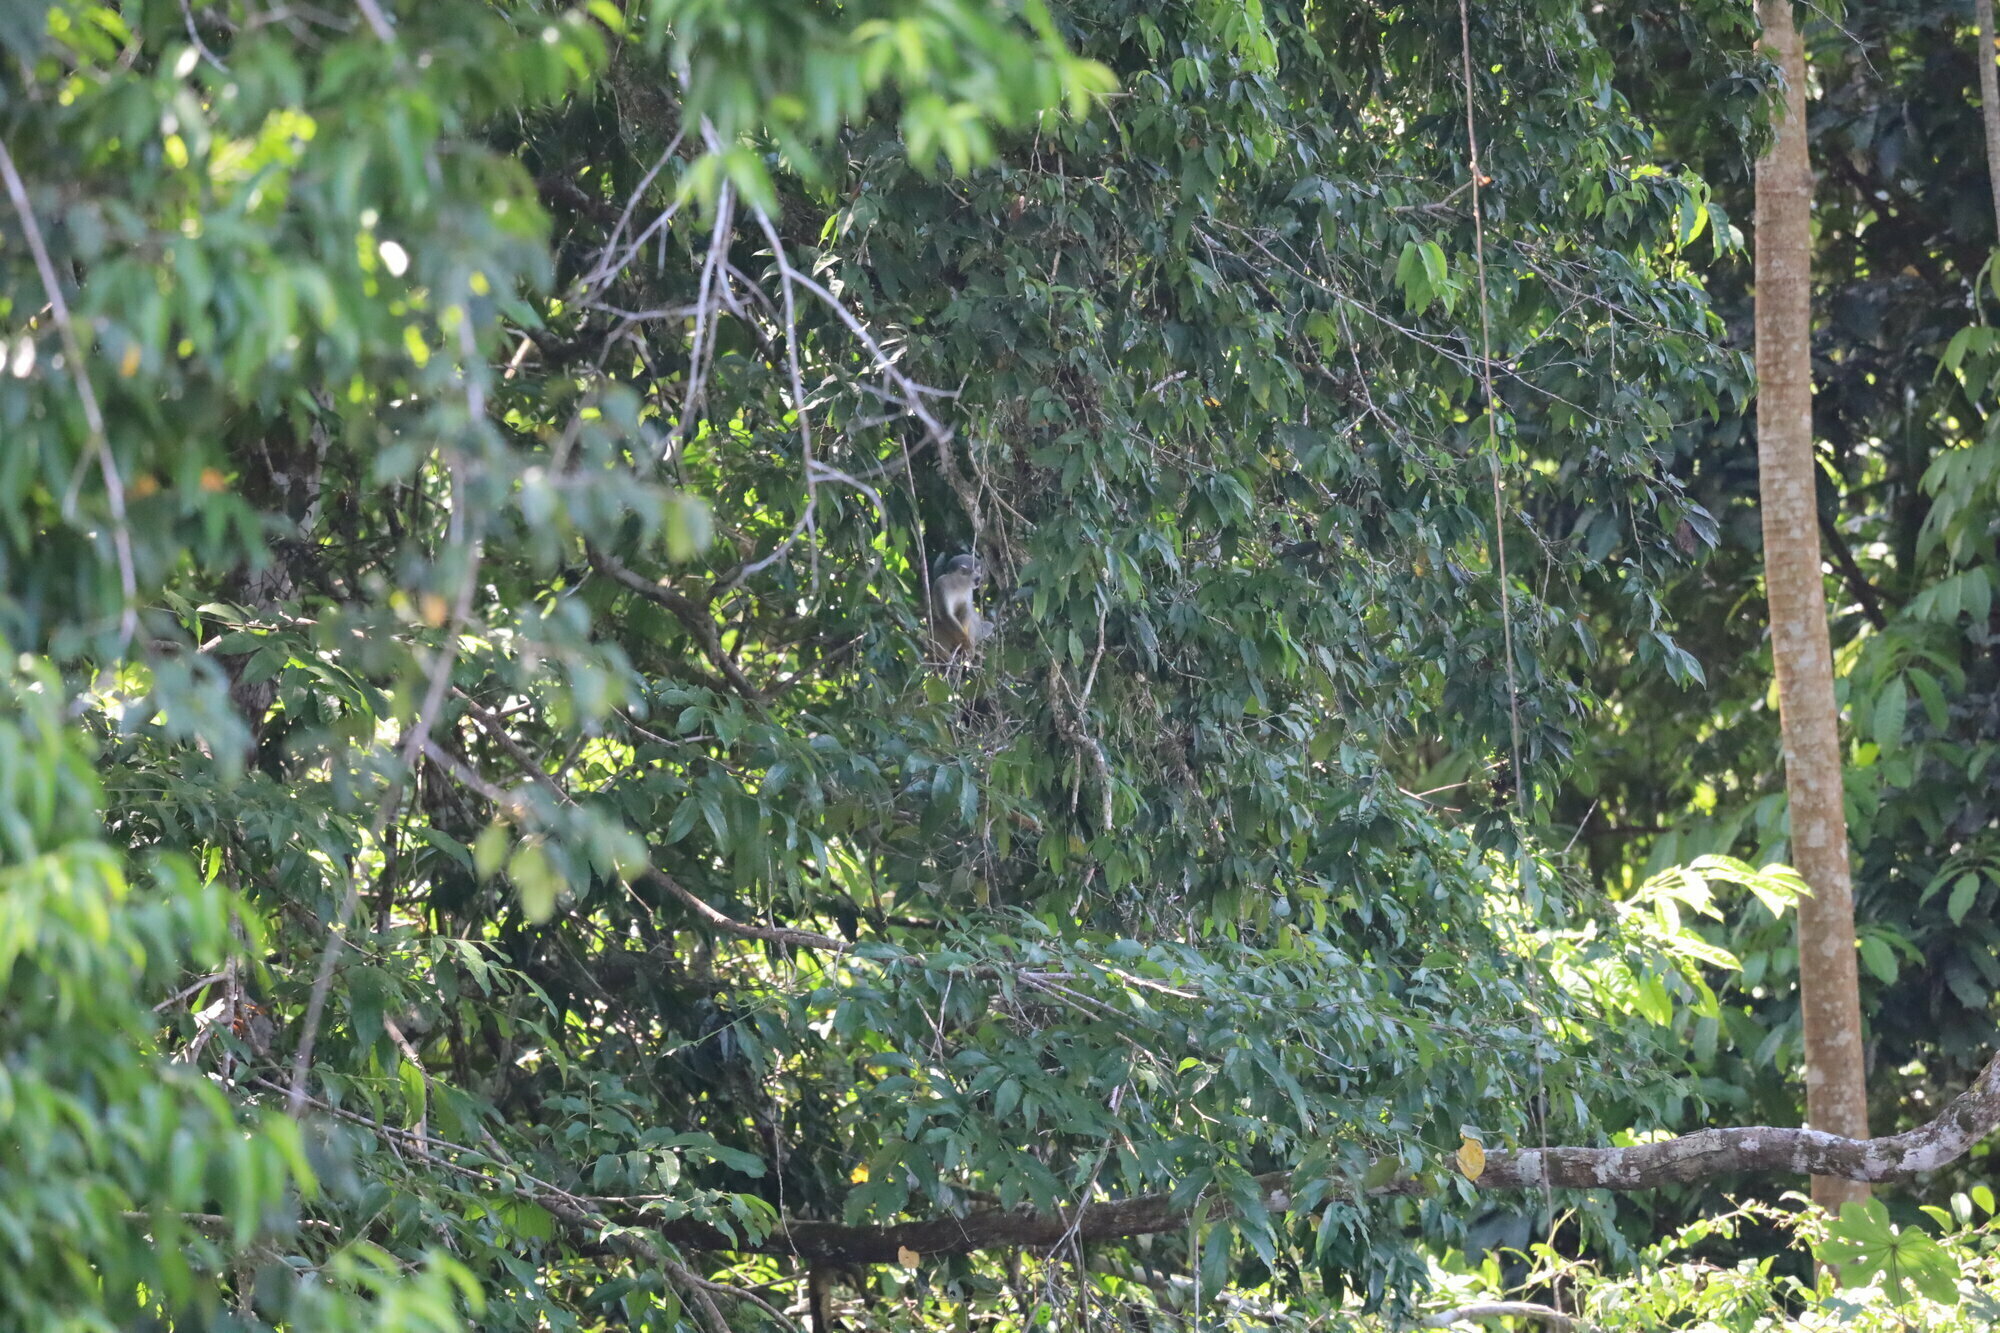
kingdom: Animalia
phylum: Chordata
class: Mammalia
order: Primates
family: Cebidae
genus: Saimiri
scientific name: Saimiri cassiquiarensis
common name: Humboldt’s squirrel monkey
